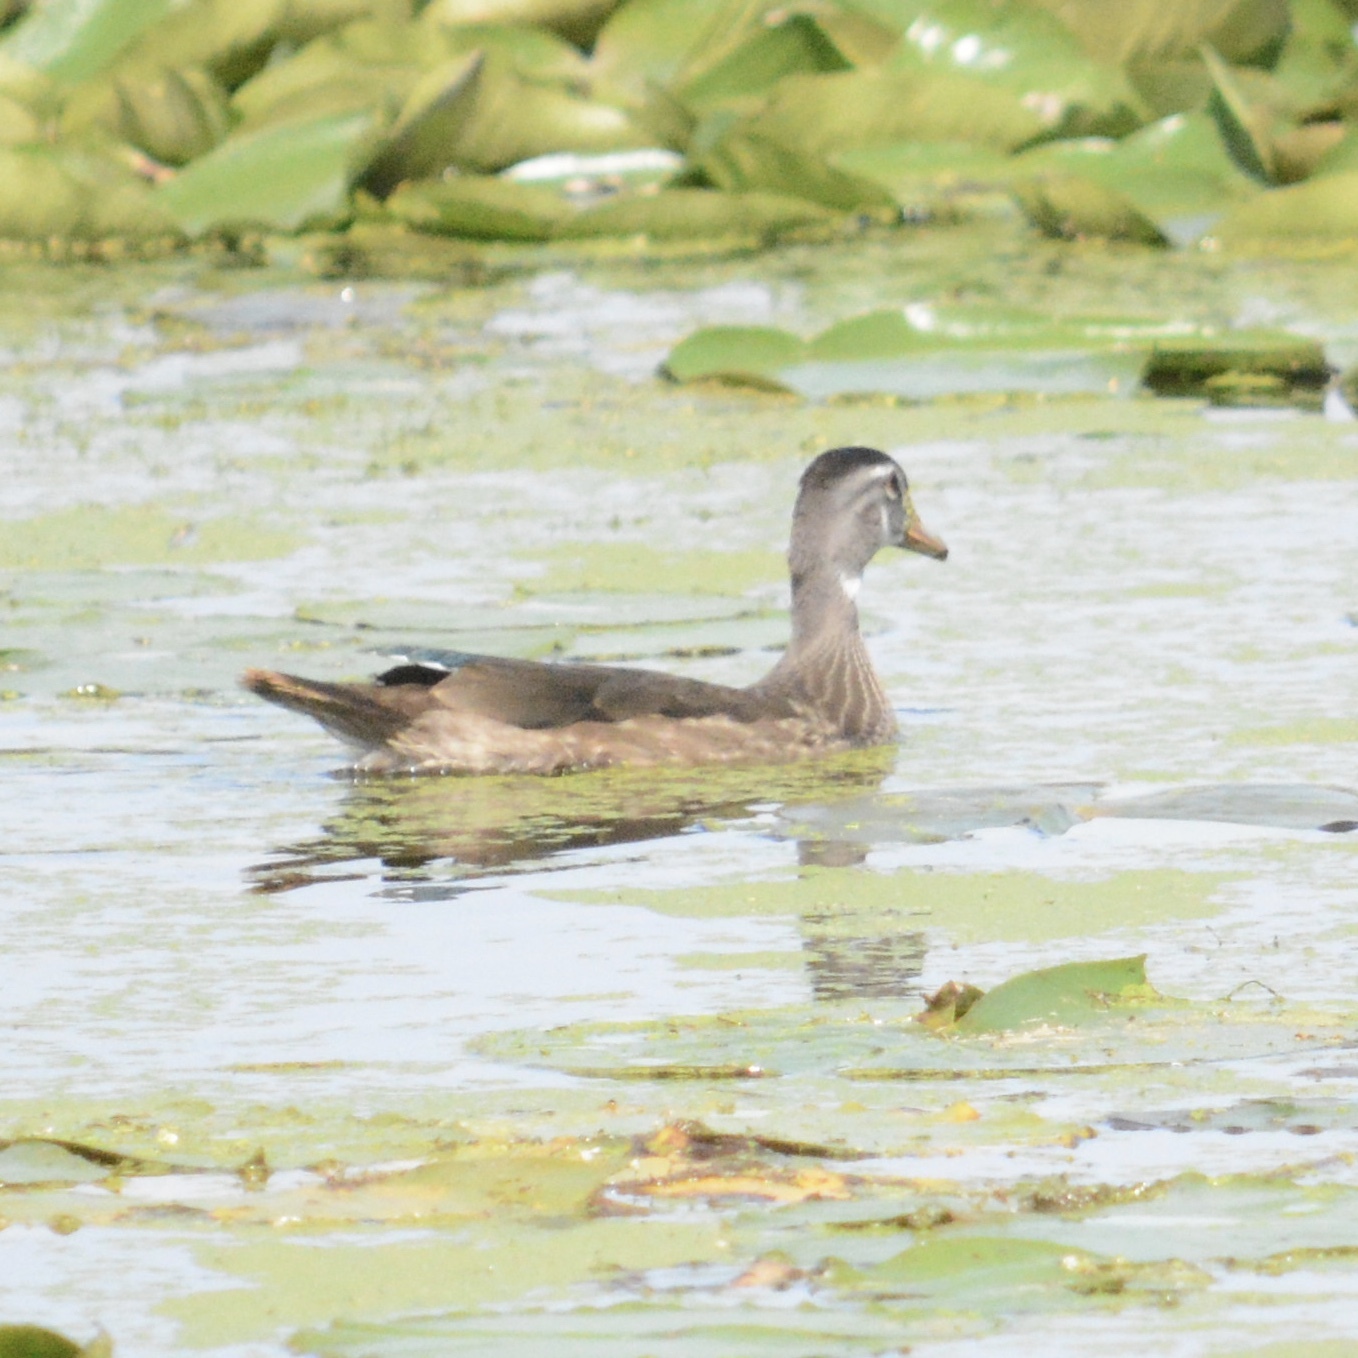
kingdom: Animalia
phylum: Chordata
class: Aves
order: Anseriformes
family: Anatidae
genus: Aix
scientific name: Aix sponsa
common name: Wood duck
